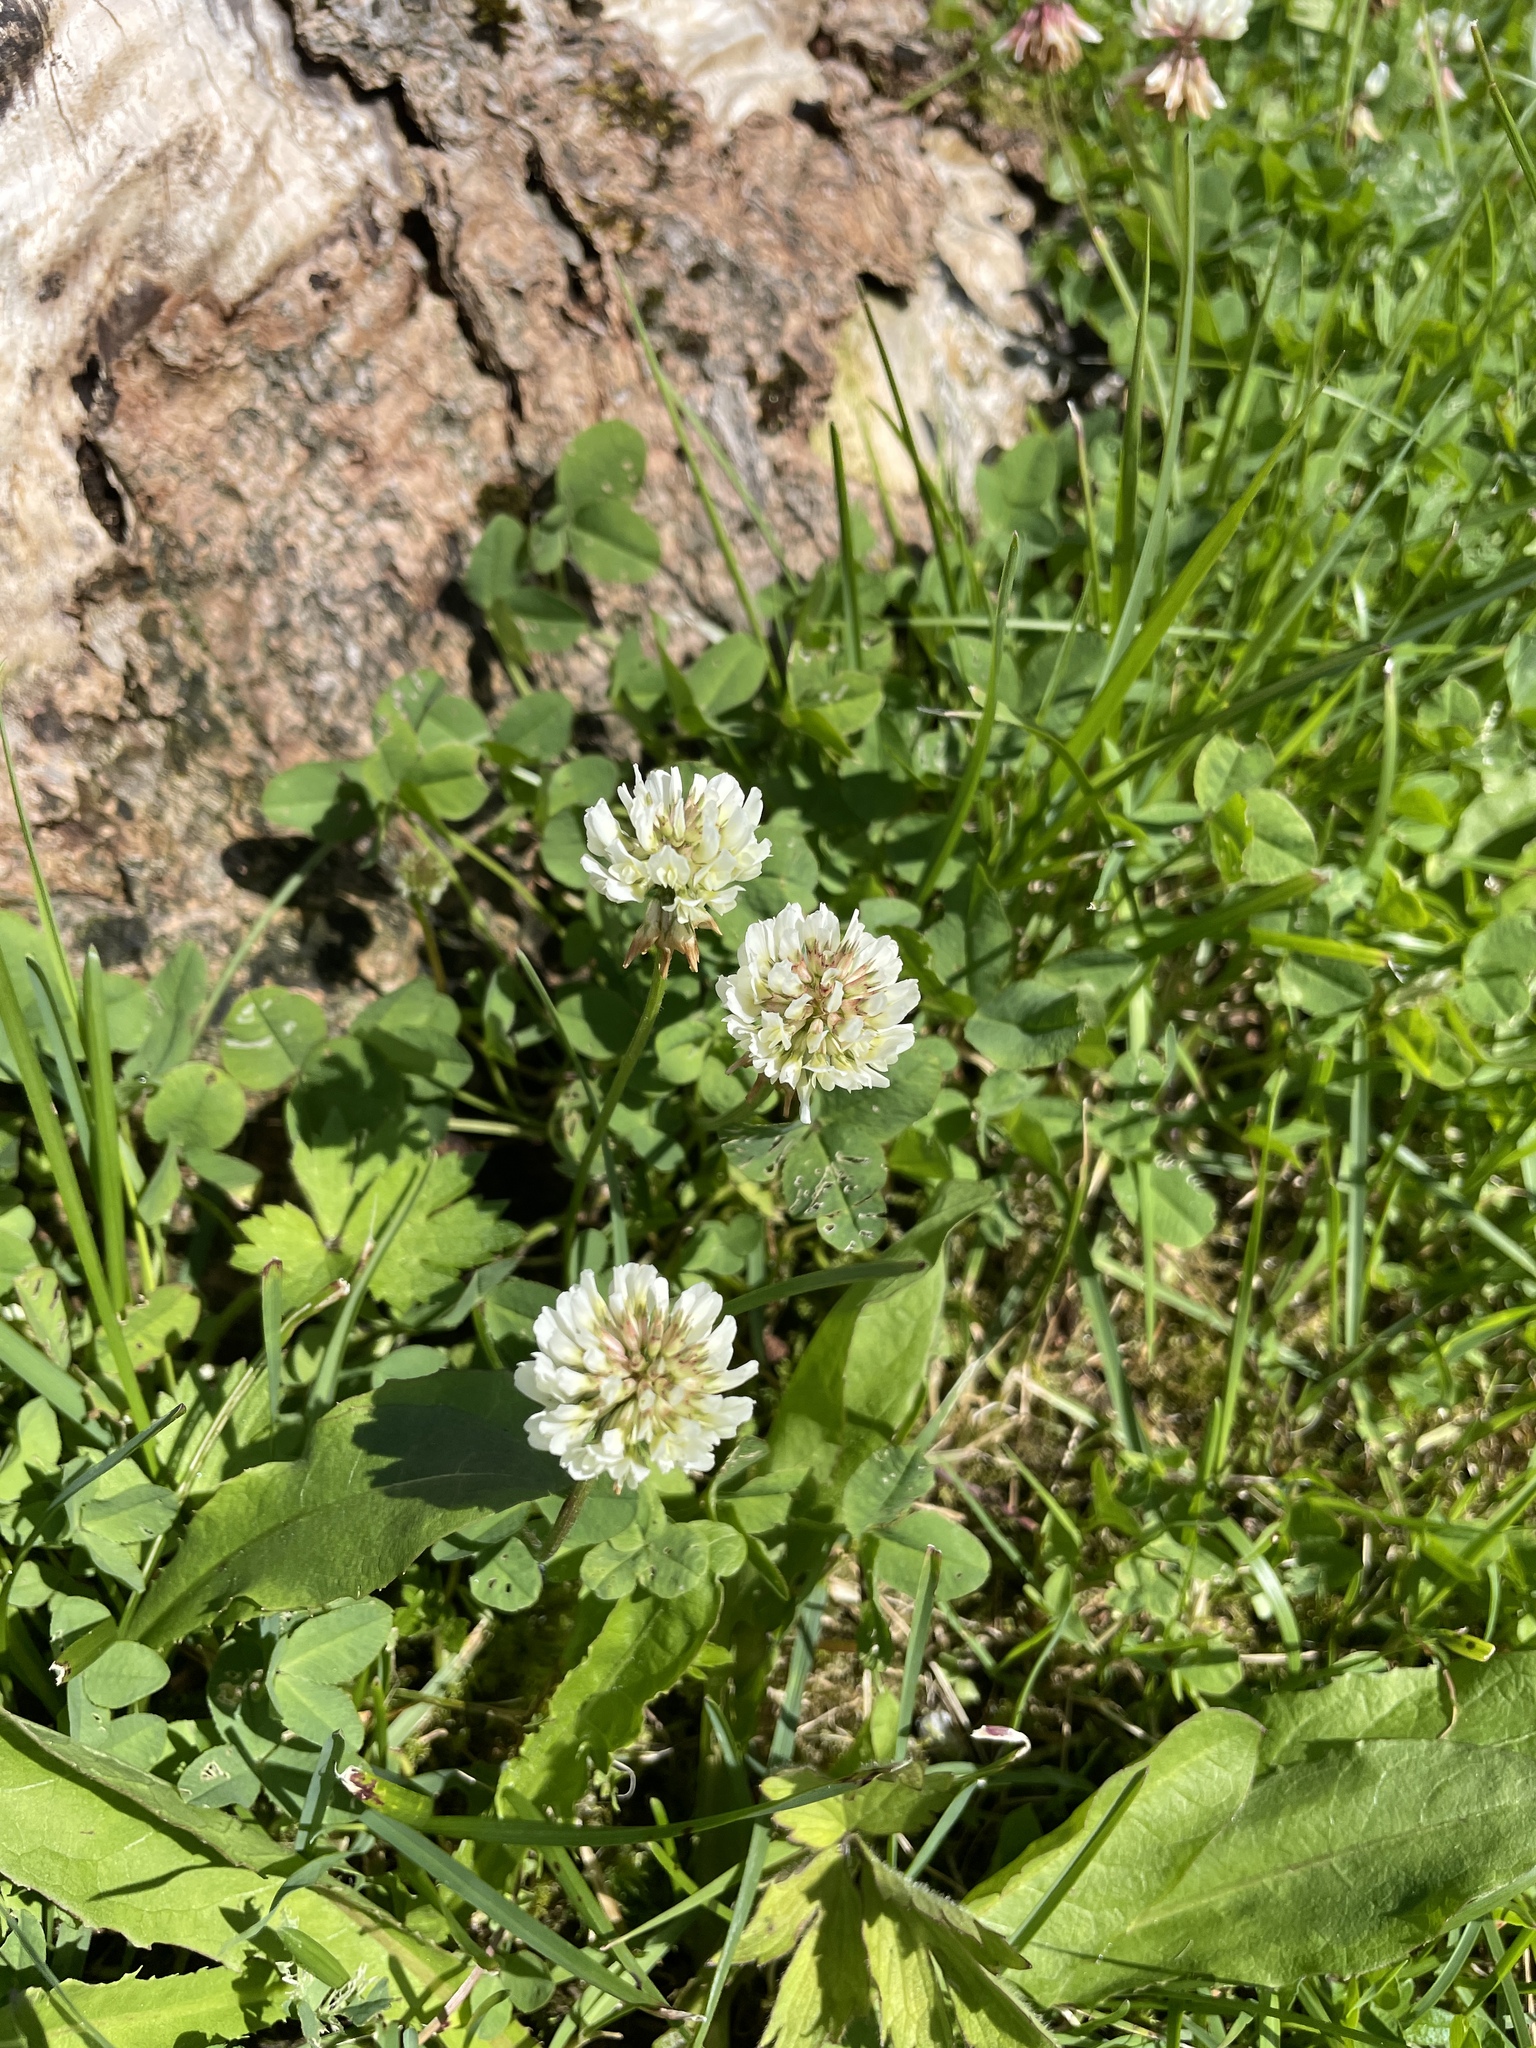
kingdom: Plantae
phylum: Tracheophyta
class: Magnoliopsida
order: Fabales
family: Fabaceae
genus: Trifolium
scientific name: Trifolium repens
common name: White clover
